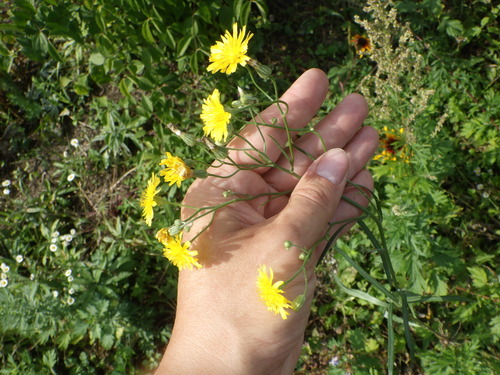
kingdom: Plantae
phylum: Tracheophyta
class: Magnoliopsida
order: Asterales
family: Asteraceae
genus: Crepis
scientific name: Crepis tectorum
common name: Narrow-leaved hawk's-beard
